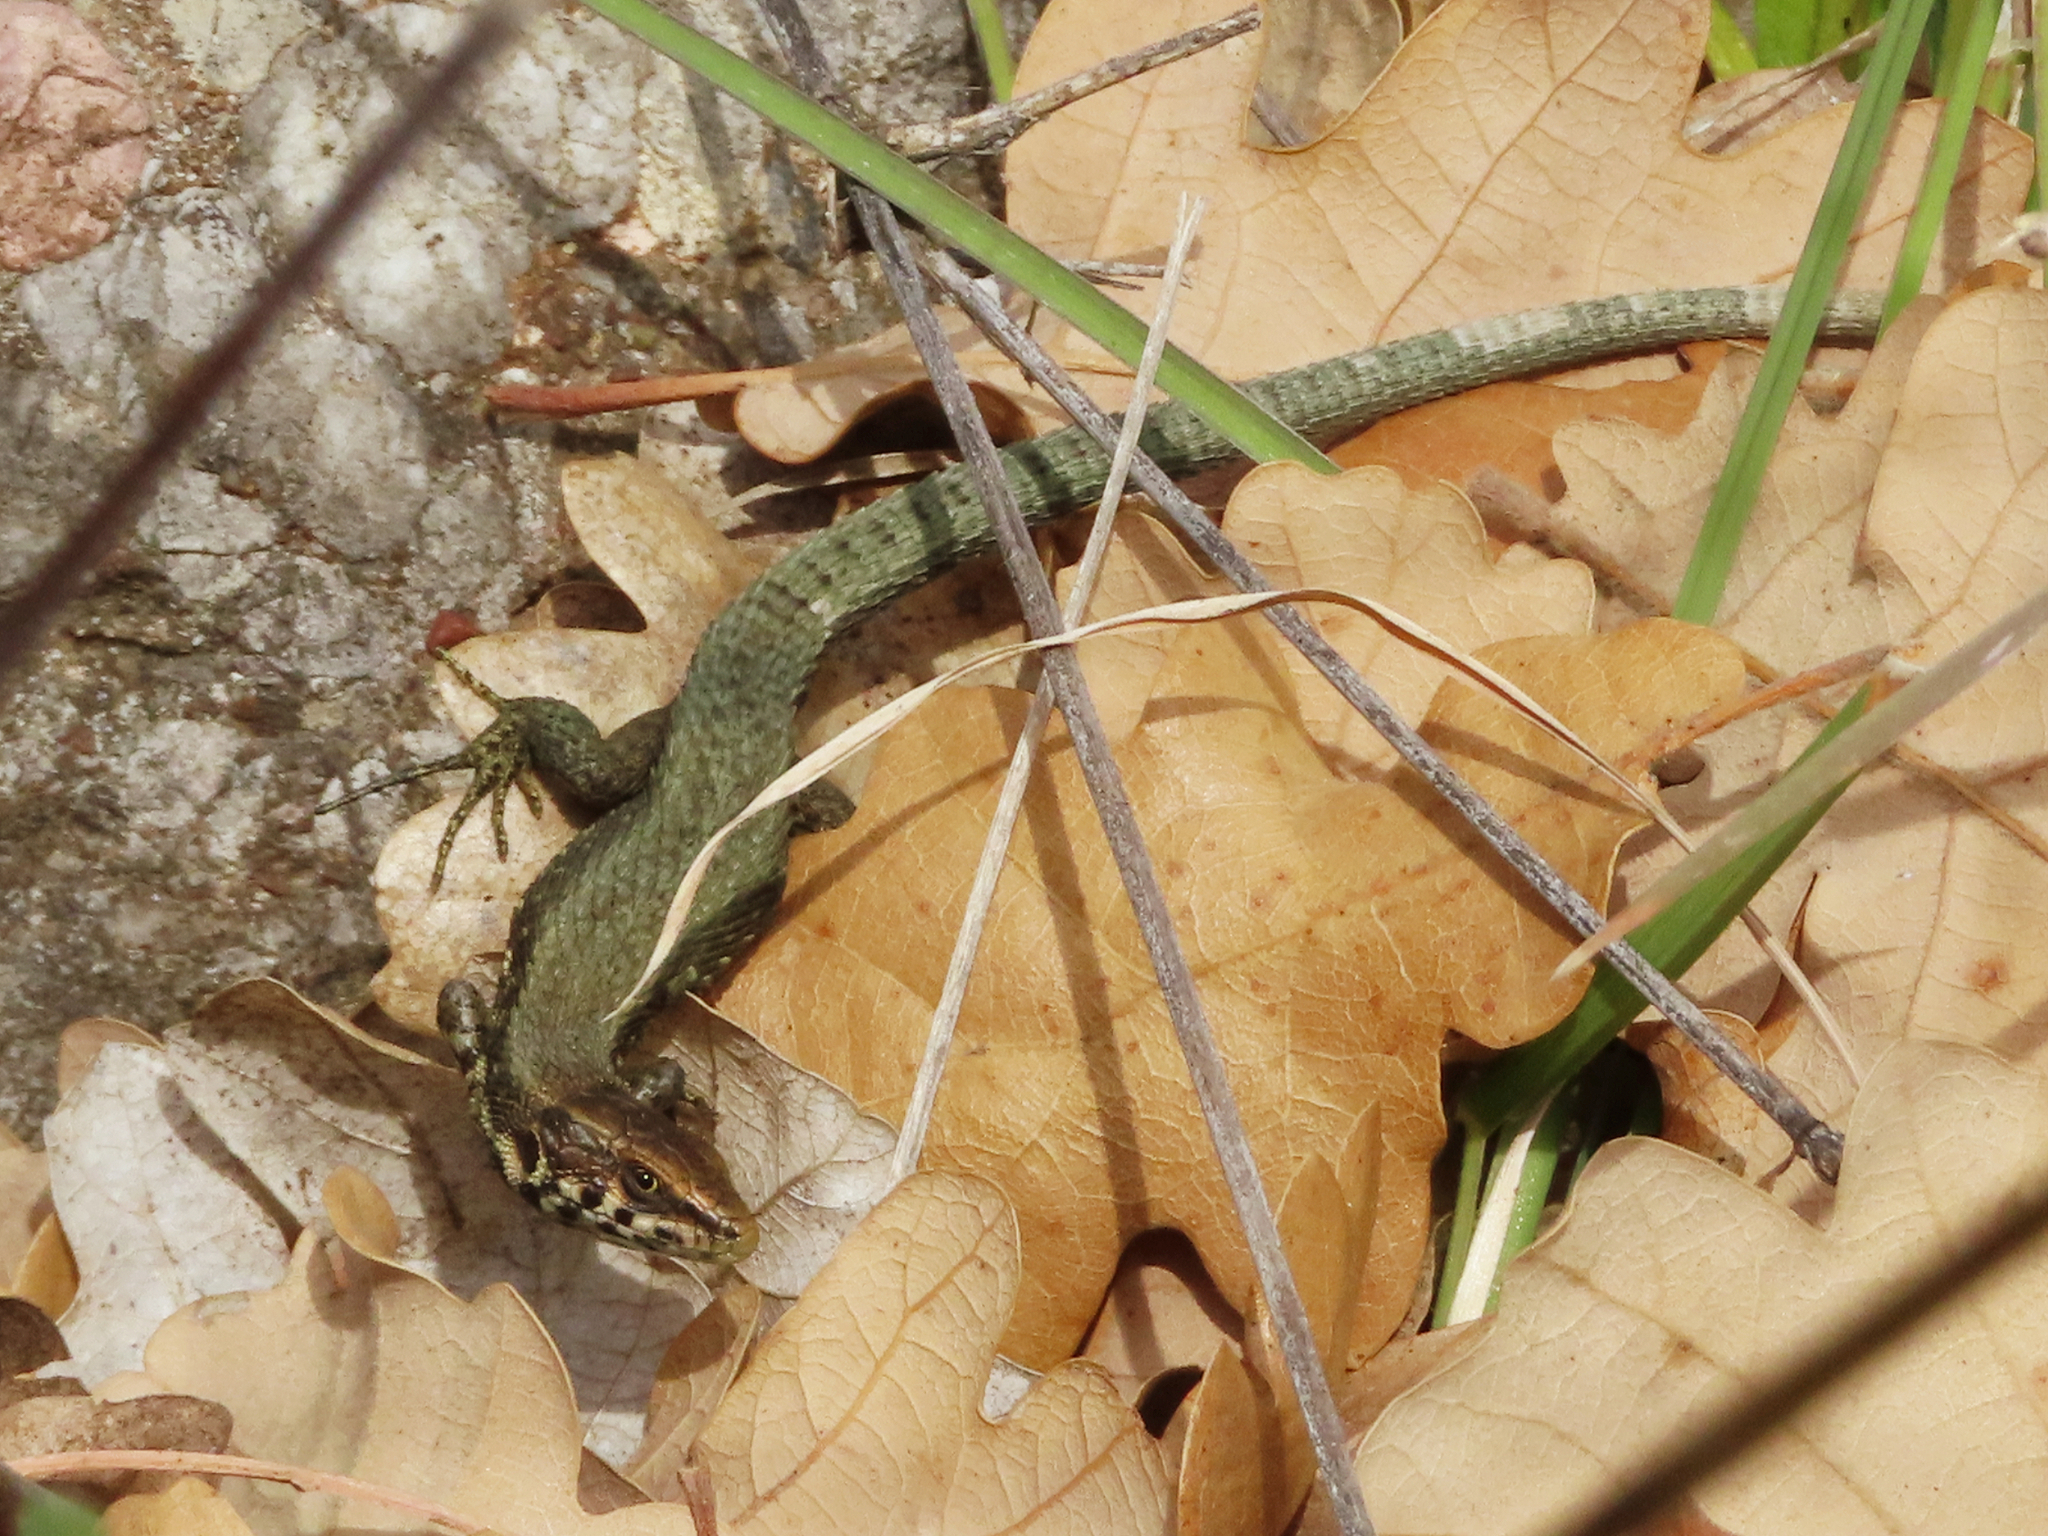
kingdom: Animalia
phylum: Chordata
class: Squamata
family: Lacertidae
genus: Algyroides
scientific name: Algyroides moreoticus
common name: Greek algyroides
